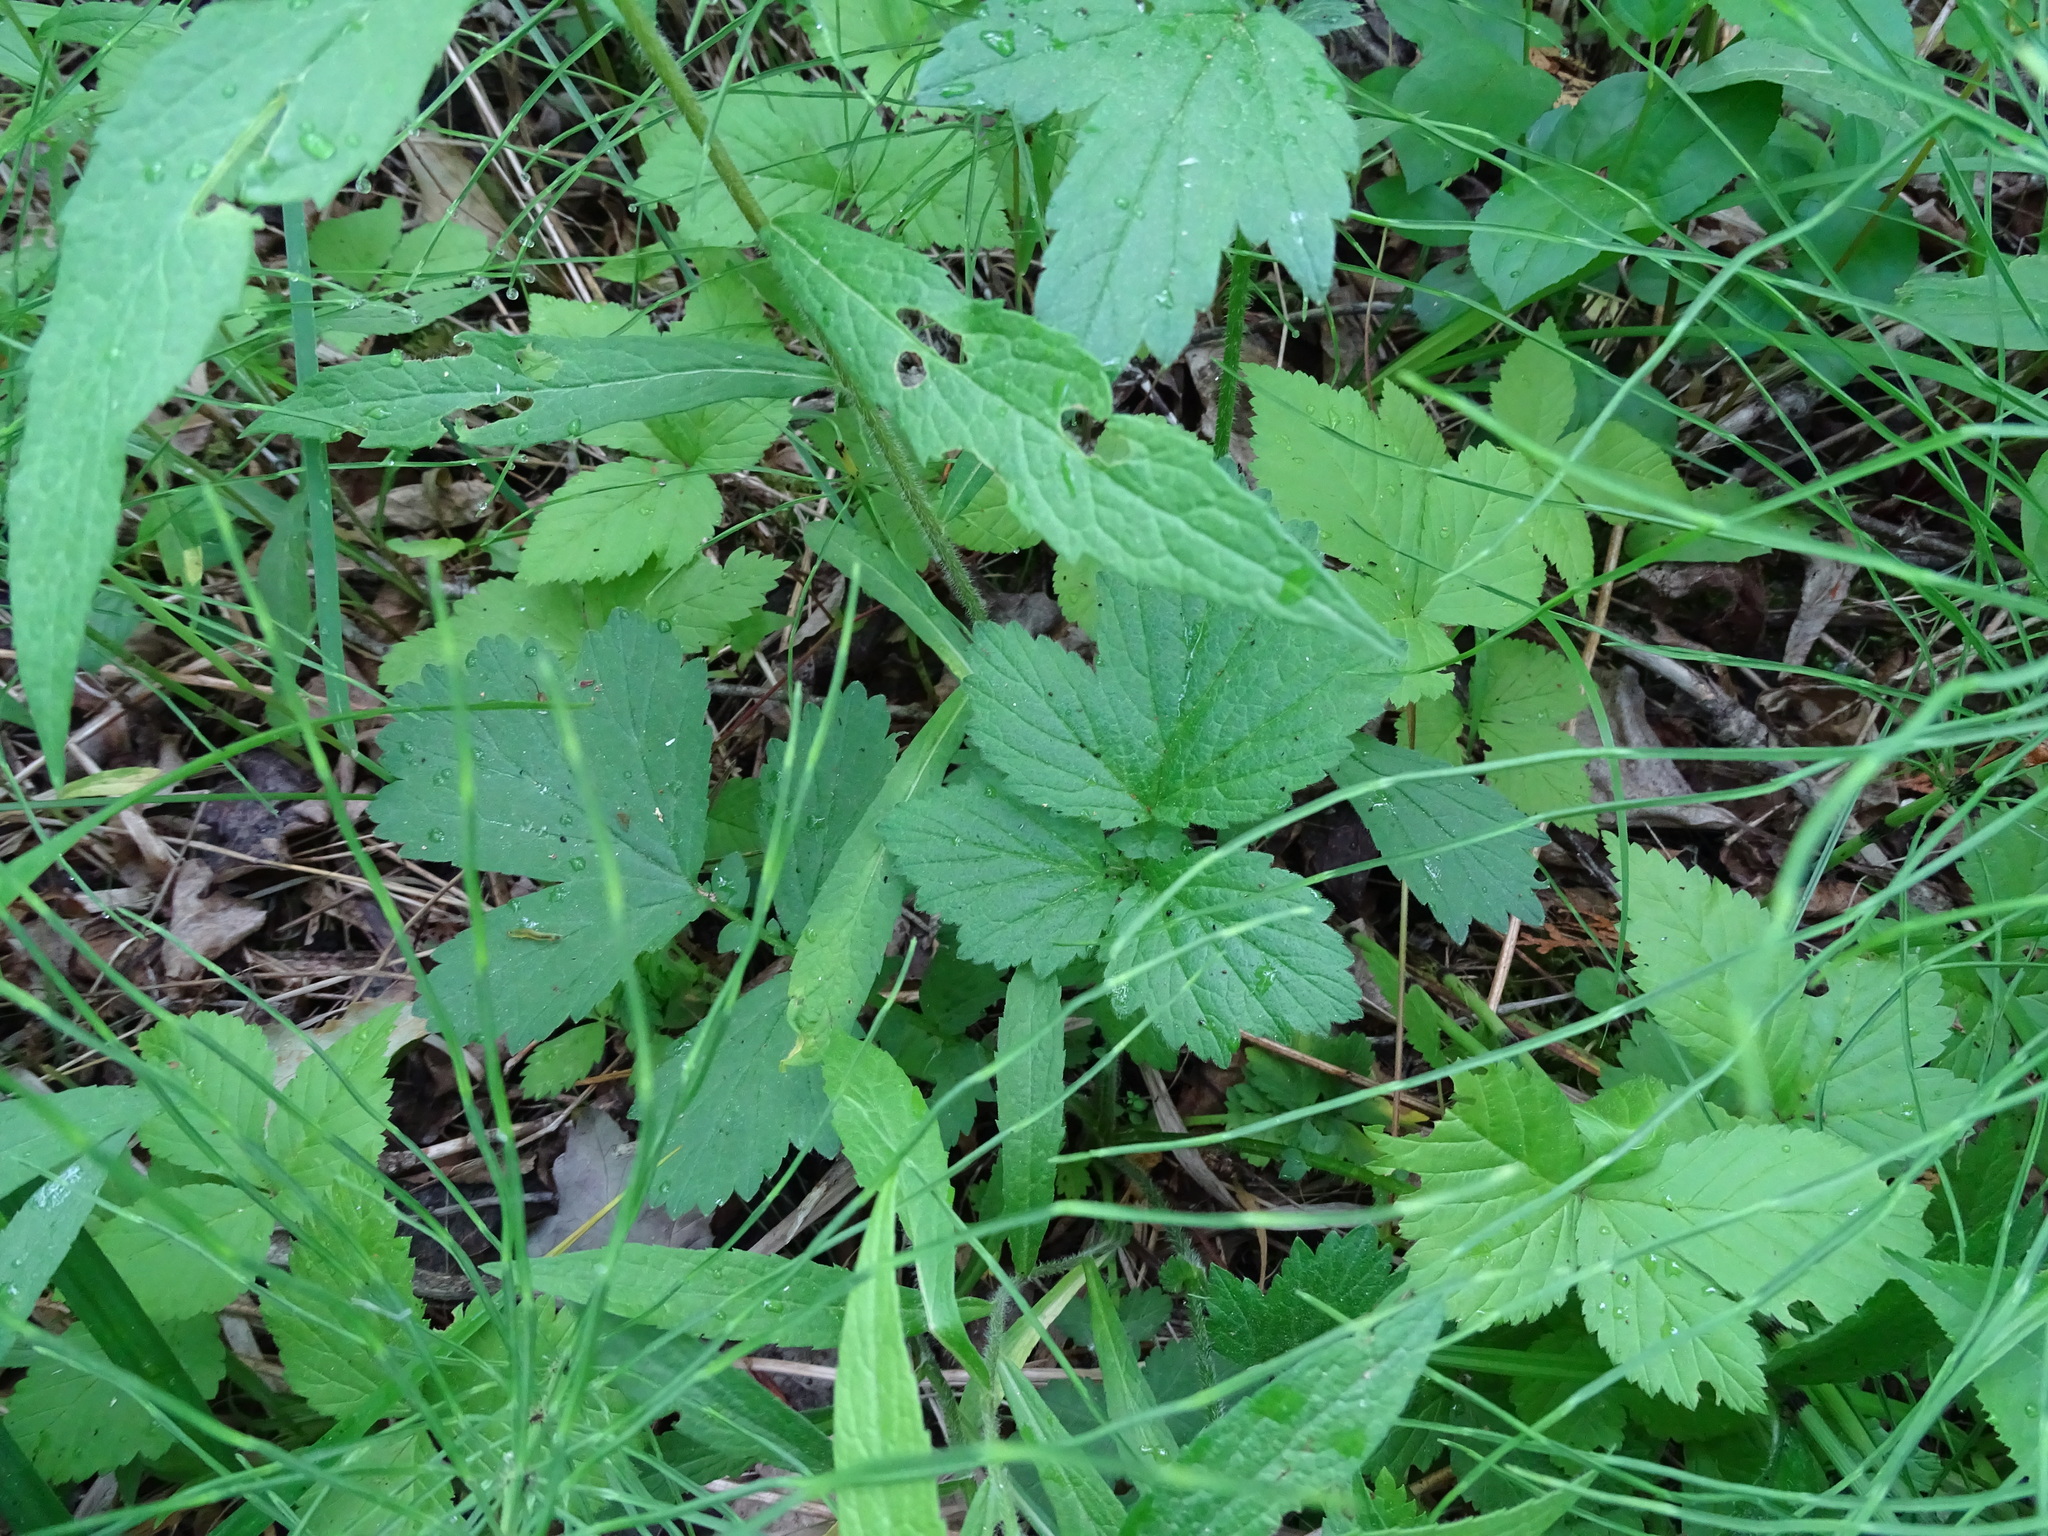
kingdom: Plantae
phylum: Tracheophyta
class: Magnoliopsida
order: Rosales
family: Rosaceae
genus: Geum
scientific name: Geum rivale
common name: Water avens
